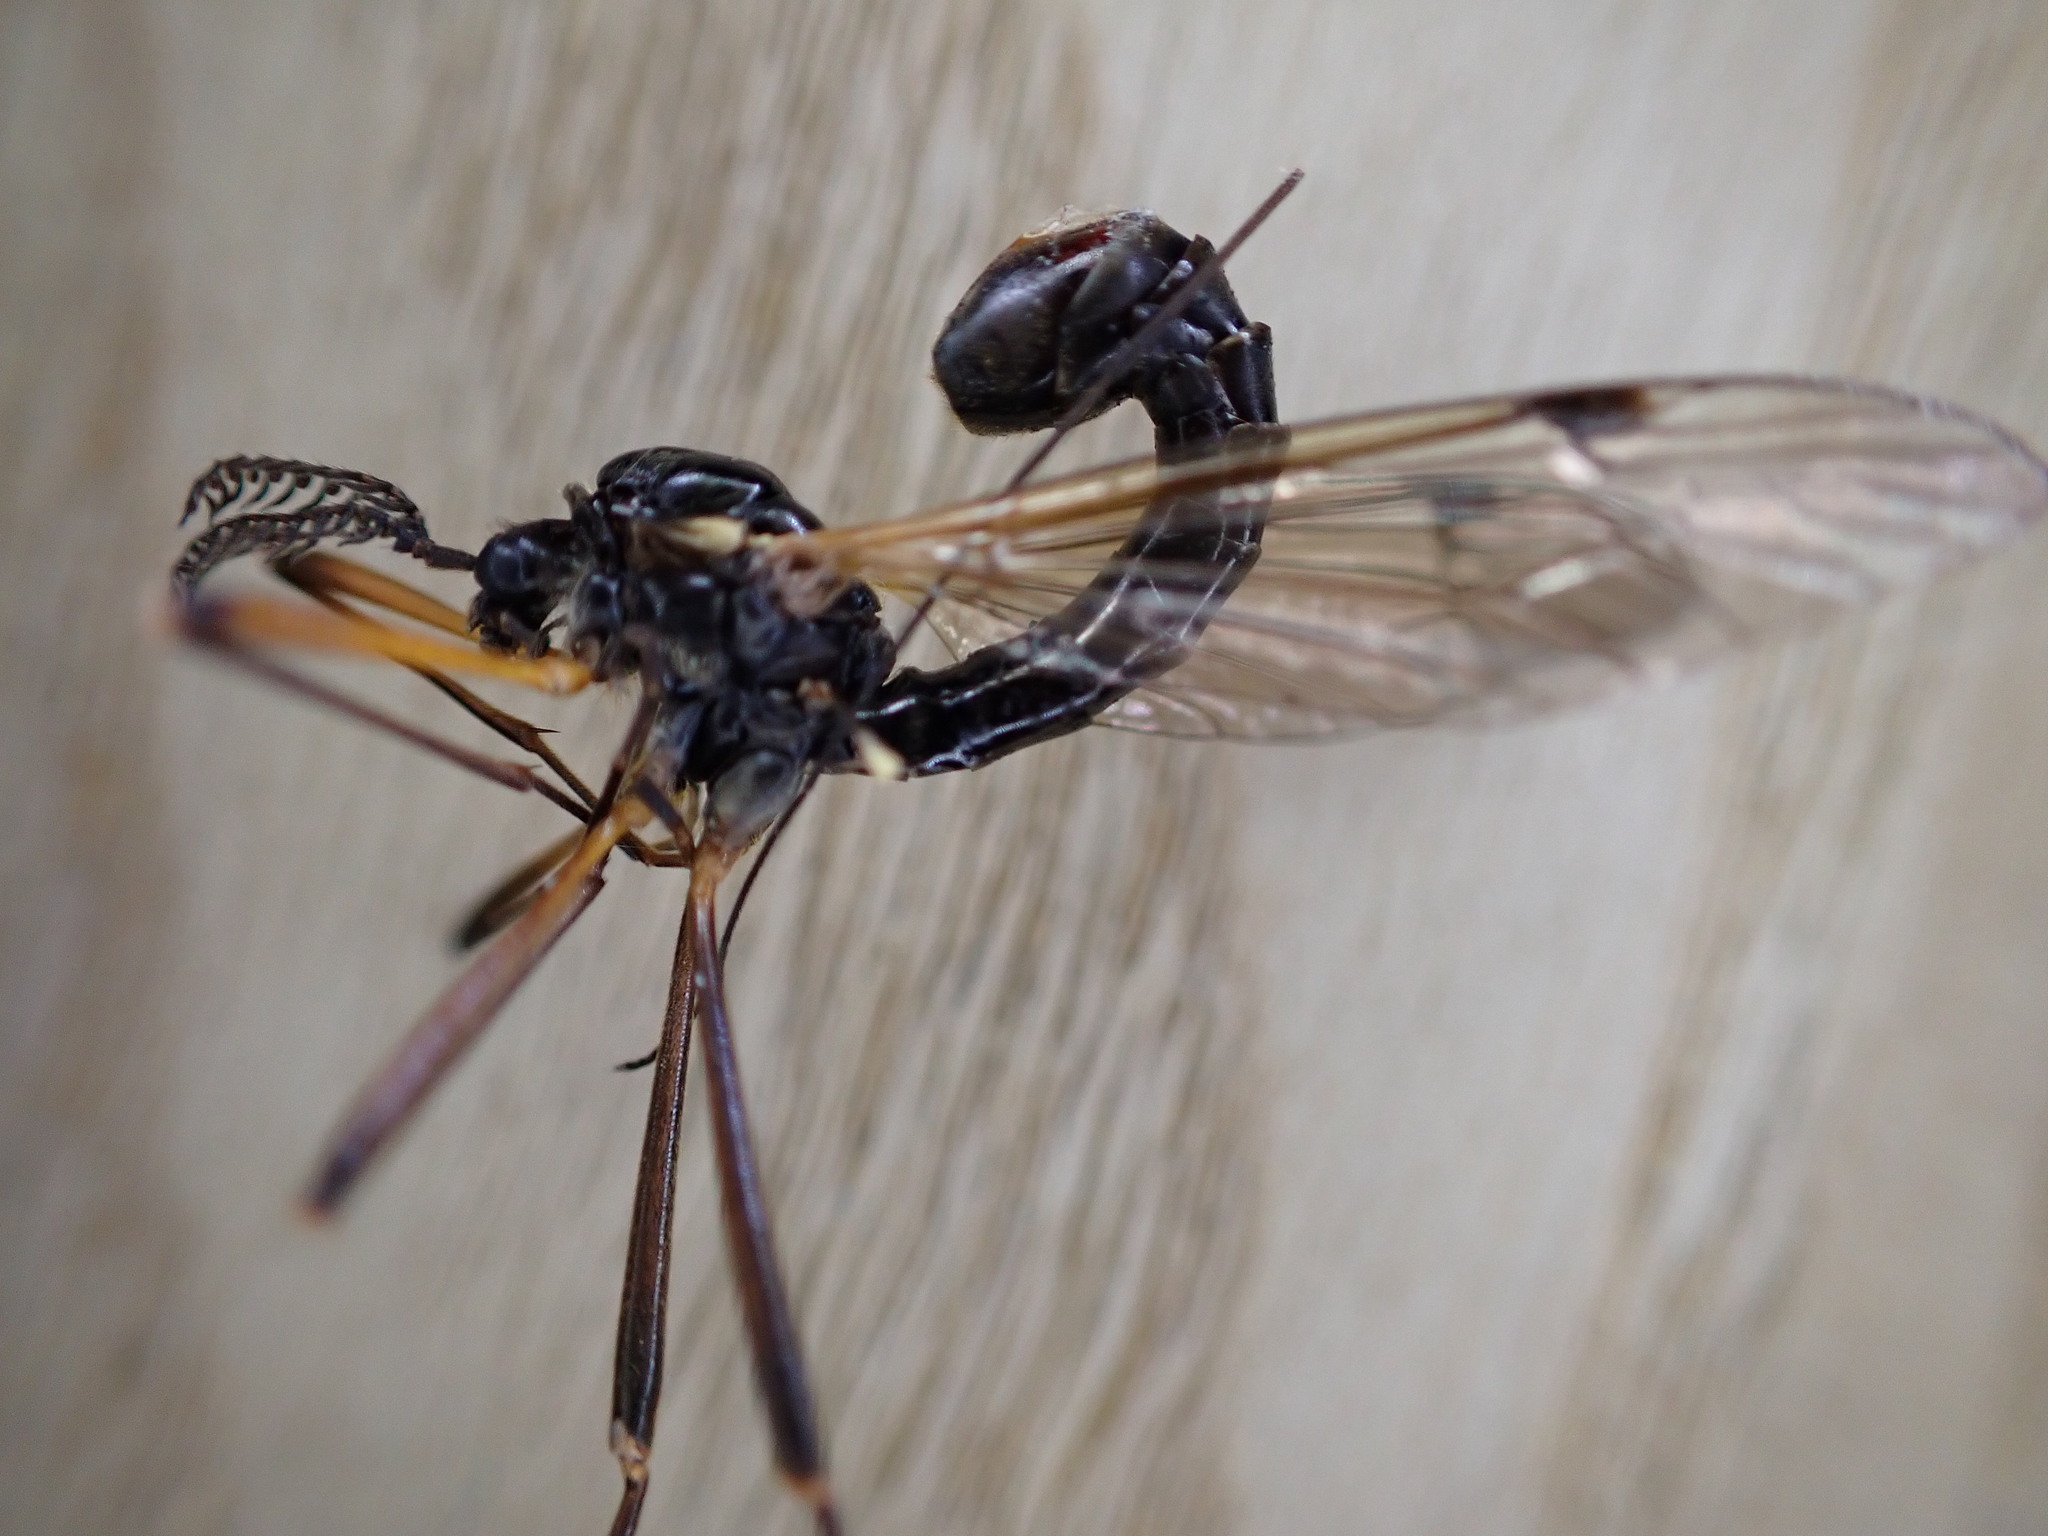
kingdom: Animalia
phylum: Arthropoda
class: Insecta
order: Diptera
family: Tipulidae
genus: Tanyptera
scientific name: Tanyptera atrata
